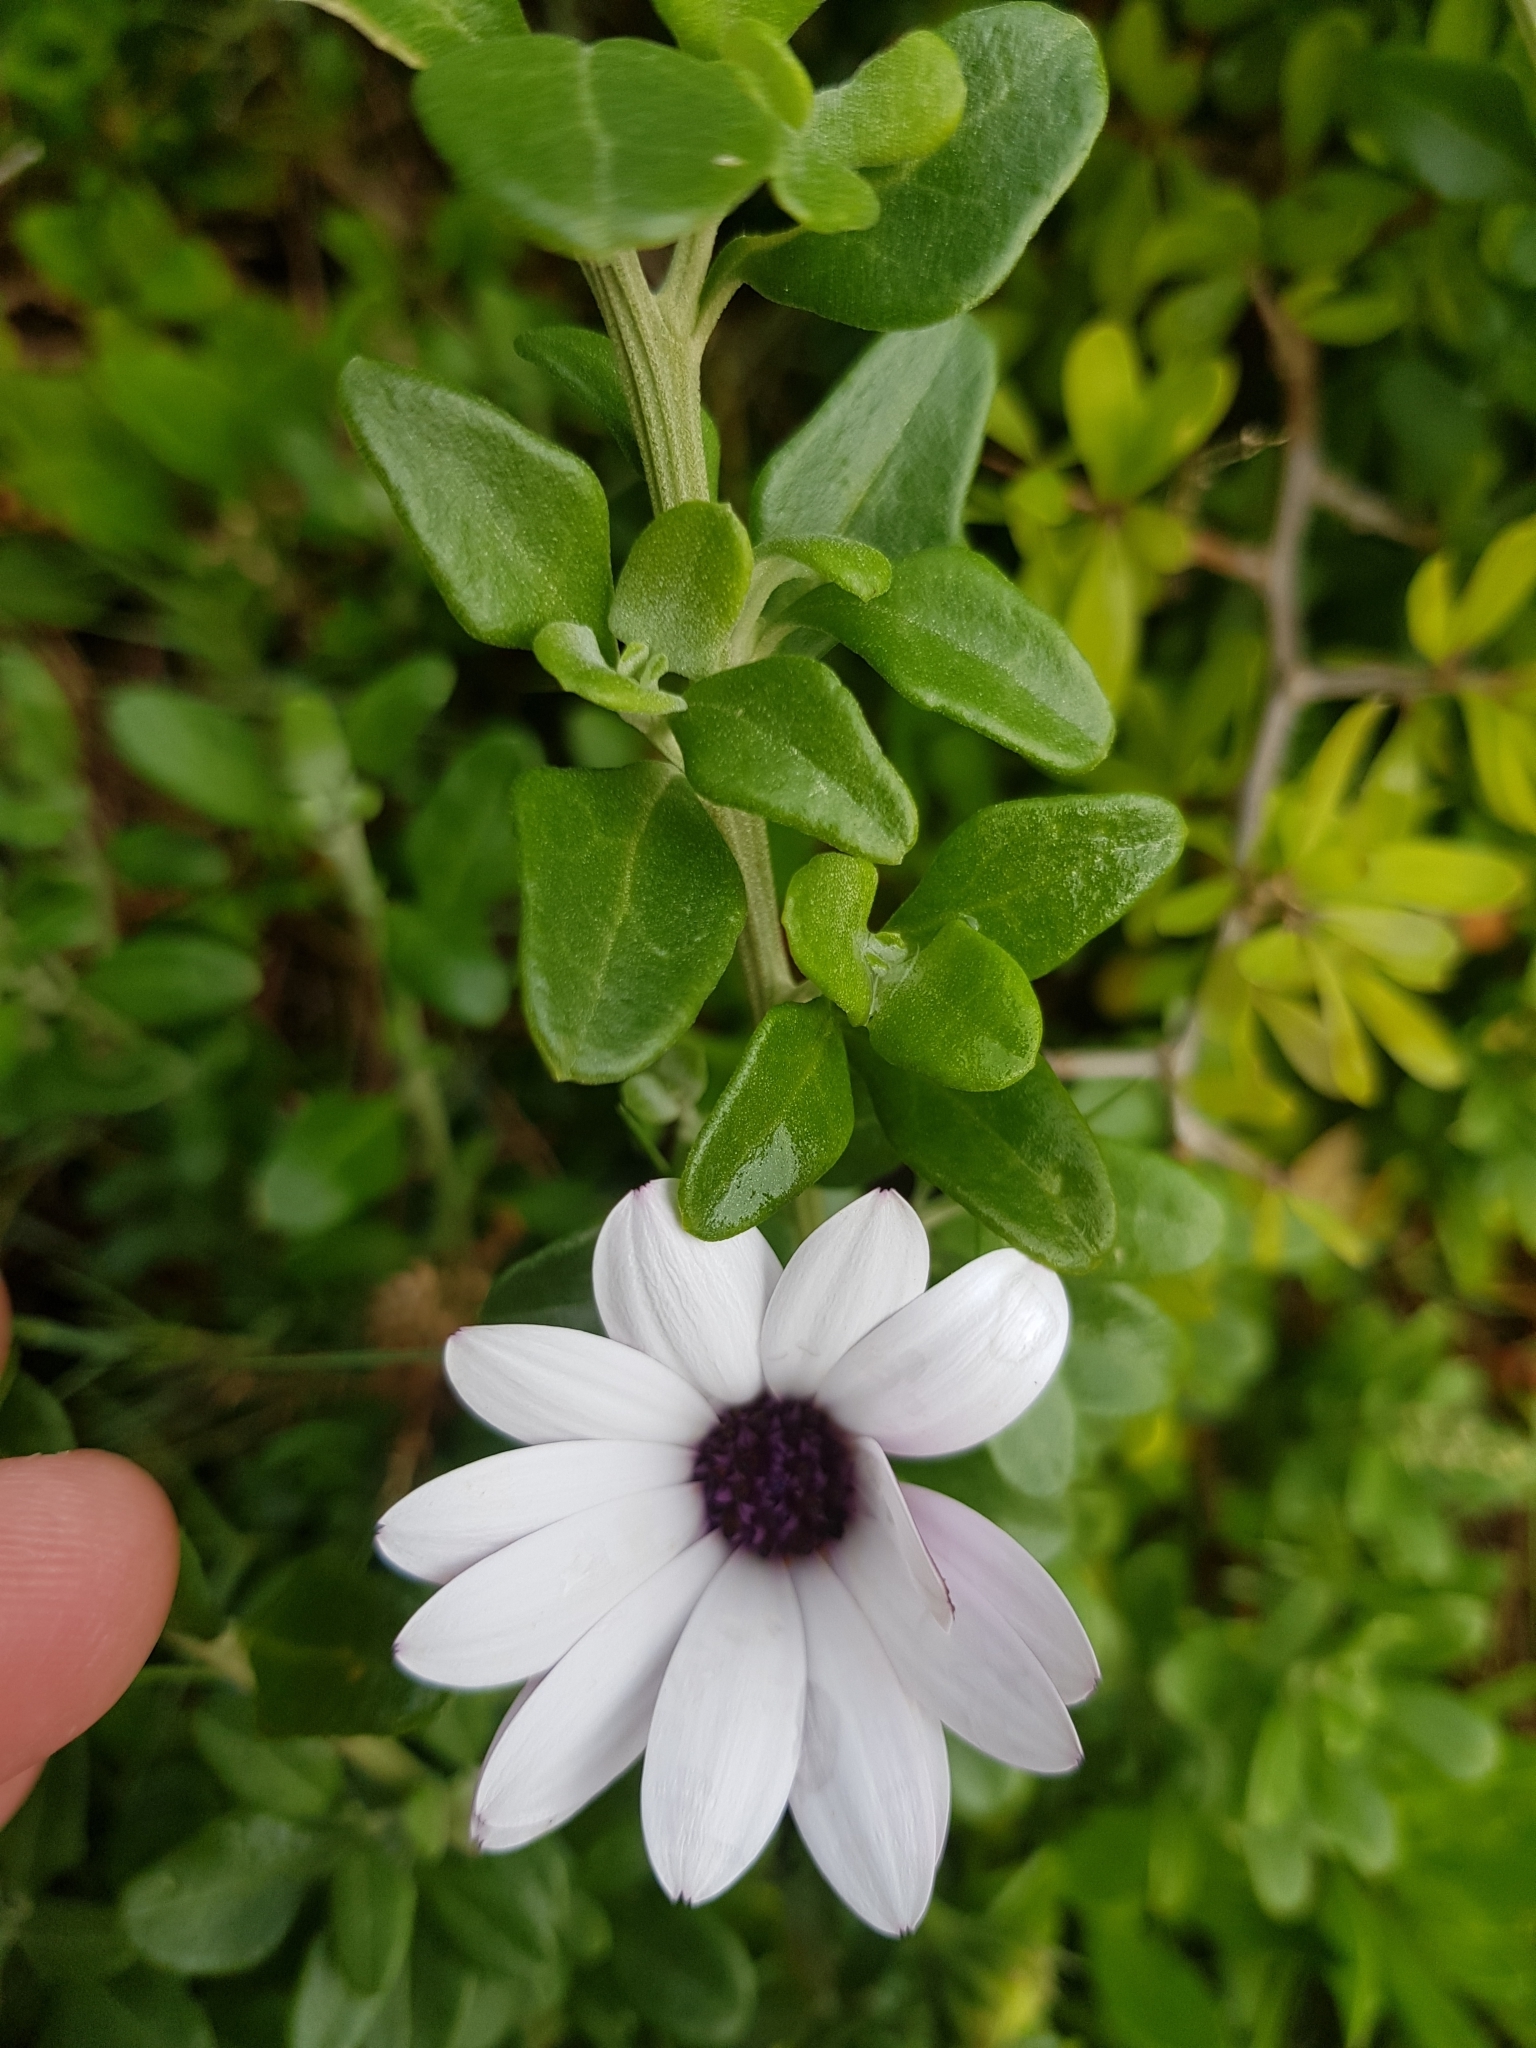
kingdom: Plantae
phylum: Tracheophyta
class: Magnoliopsida
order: Asterales
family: Asteraceae
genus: Dimorphotheca
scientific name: Dimorphotheca fruticosa
